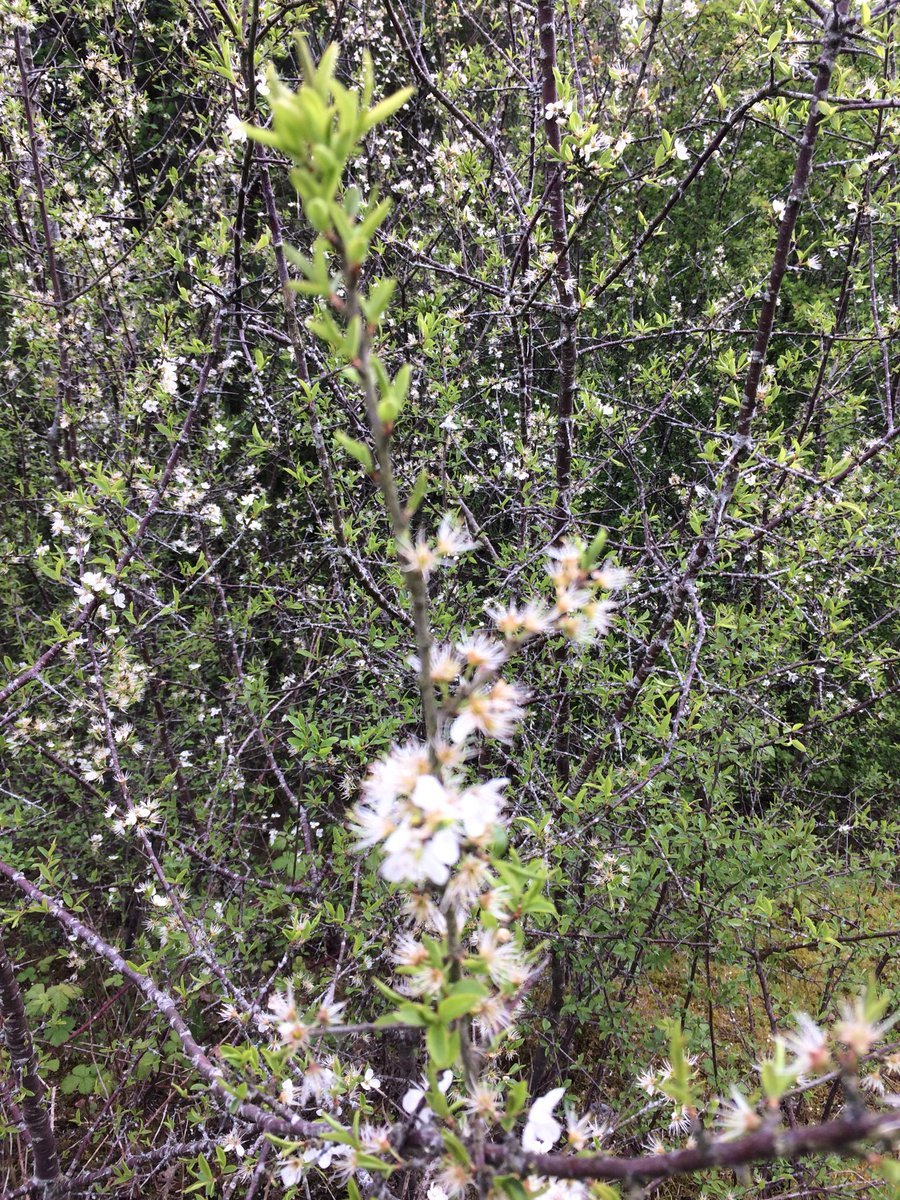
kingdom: Plantae
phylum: Tracheophyta
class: Magnoliopsida
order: Rosales
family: Rosaceae
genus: Prunus
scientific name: Prunus spinosa
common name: Blackthorn
